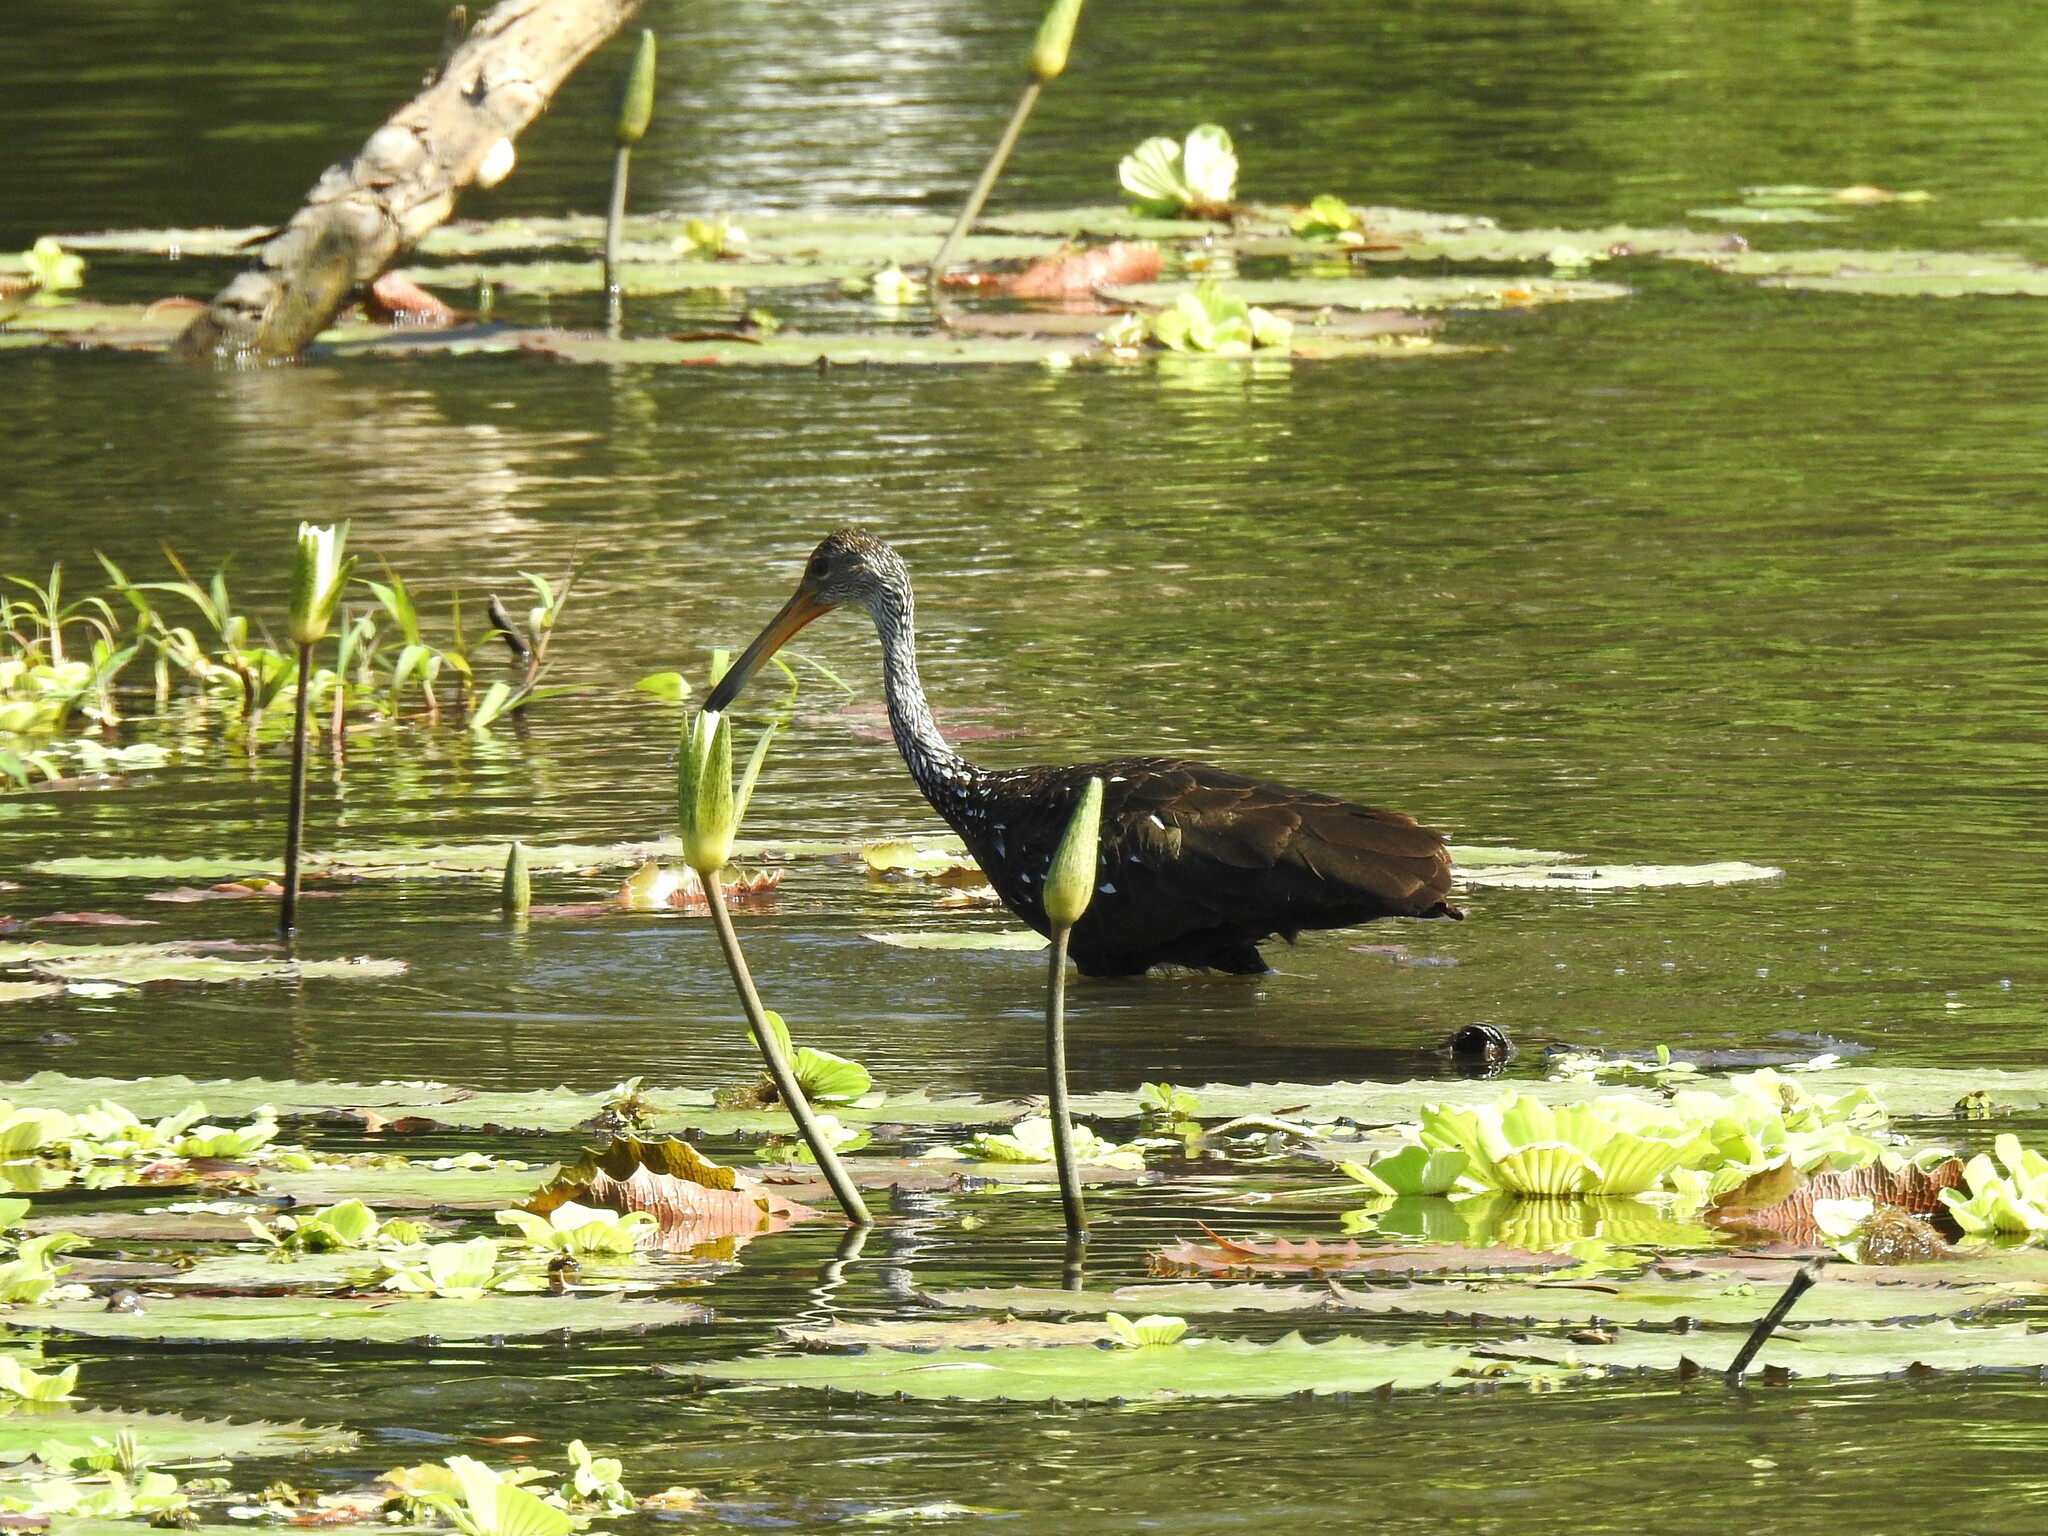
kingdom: Animalia
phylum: Chordata
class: Aves
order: Gruiformes
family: Aramidae
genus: Aramus
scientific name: Aramus guarauna
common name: Limpkin
